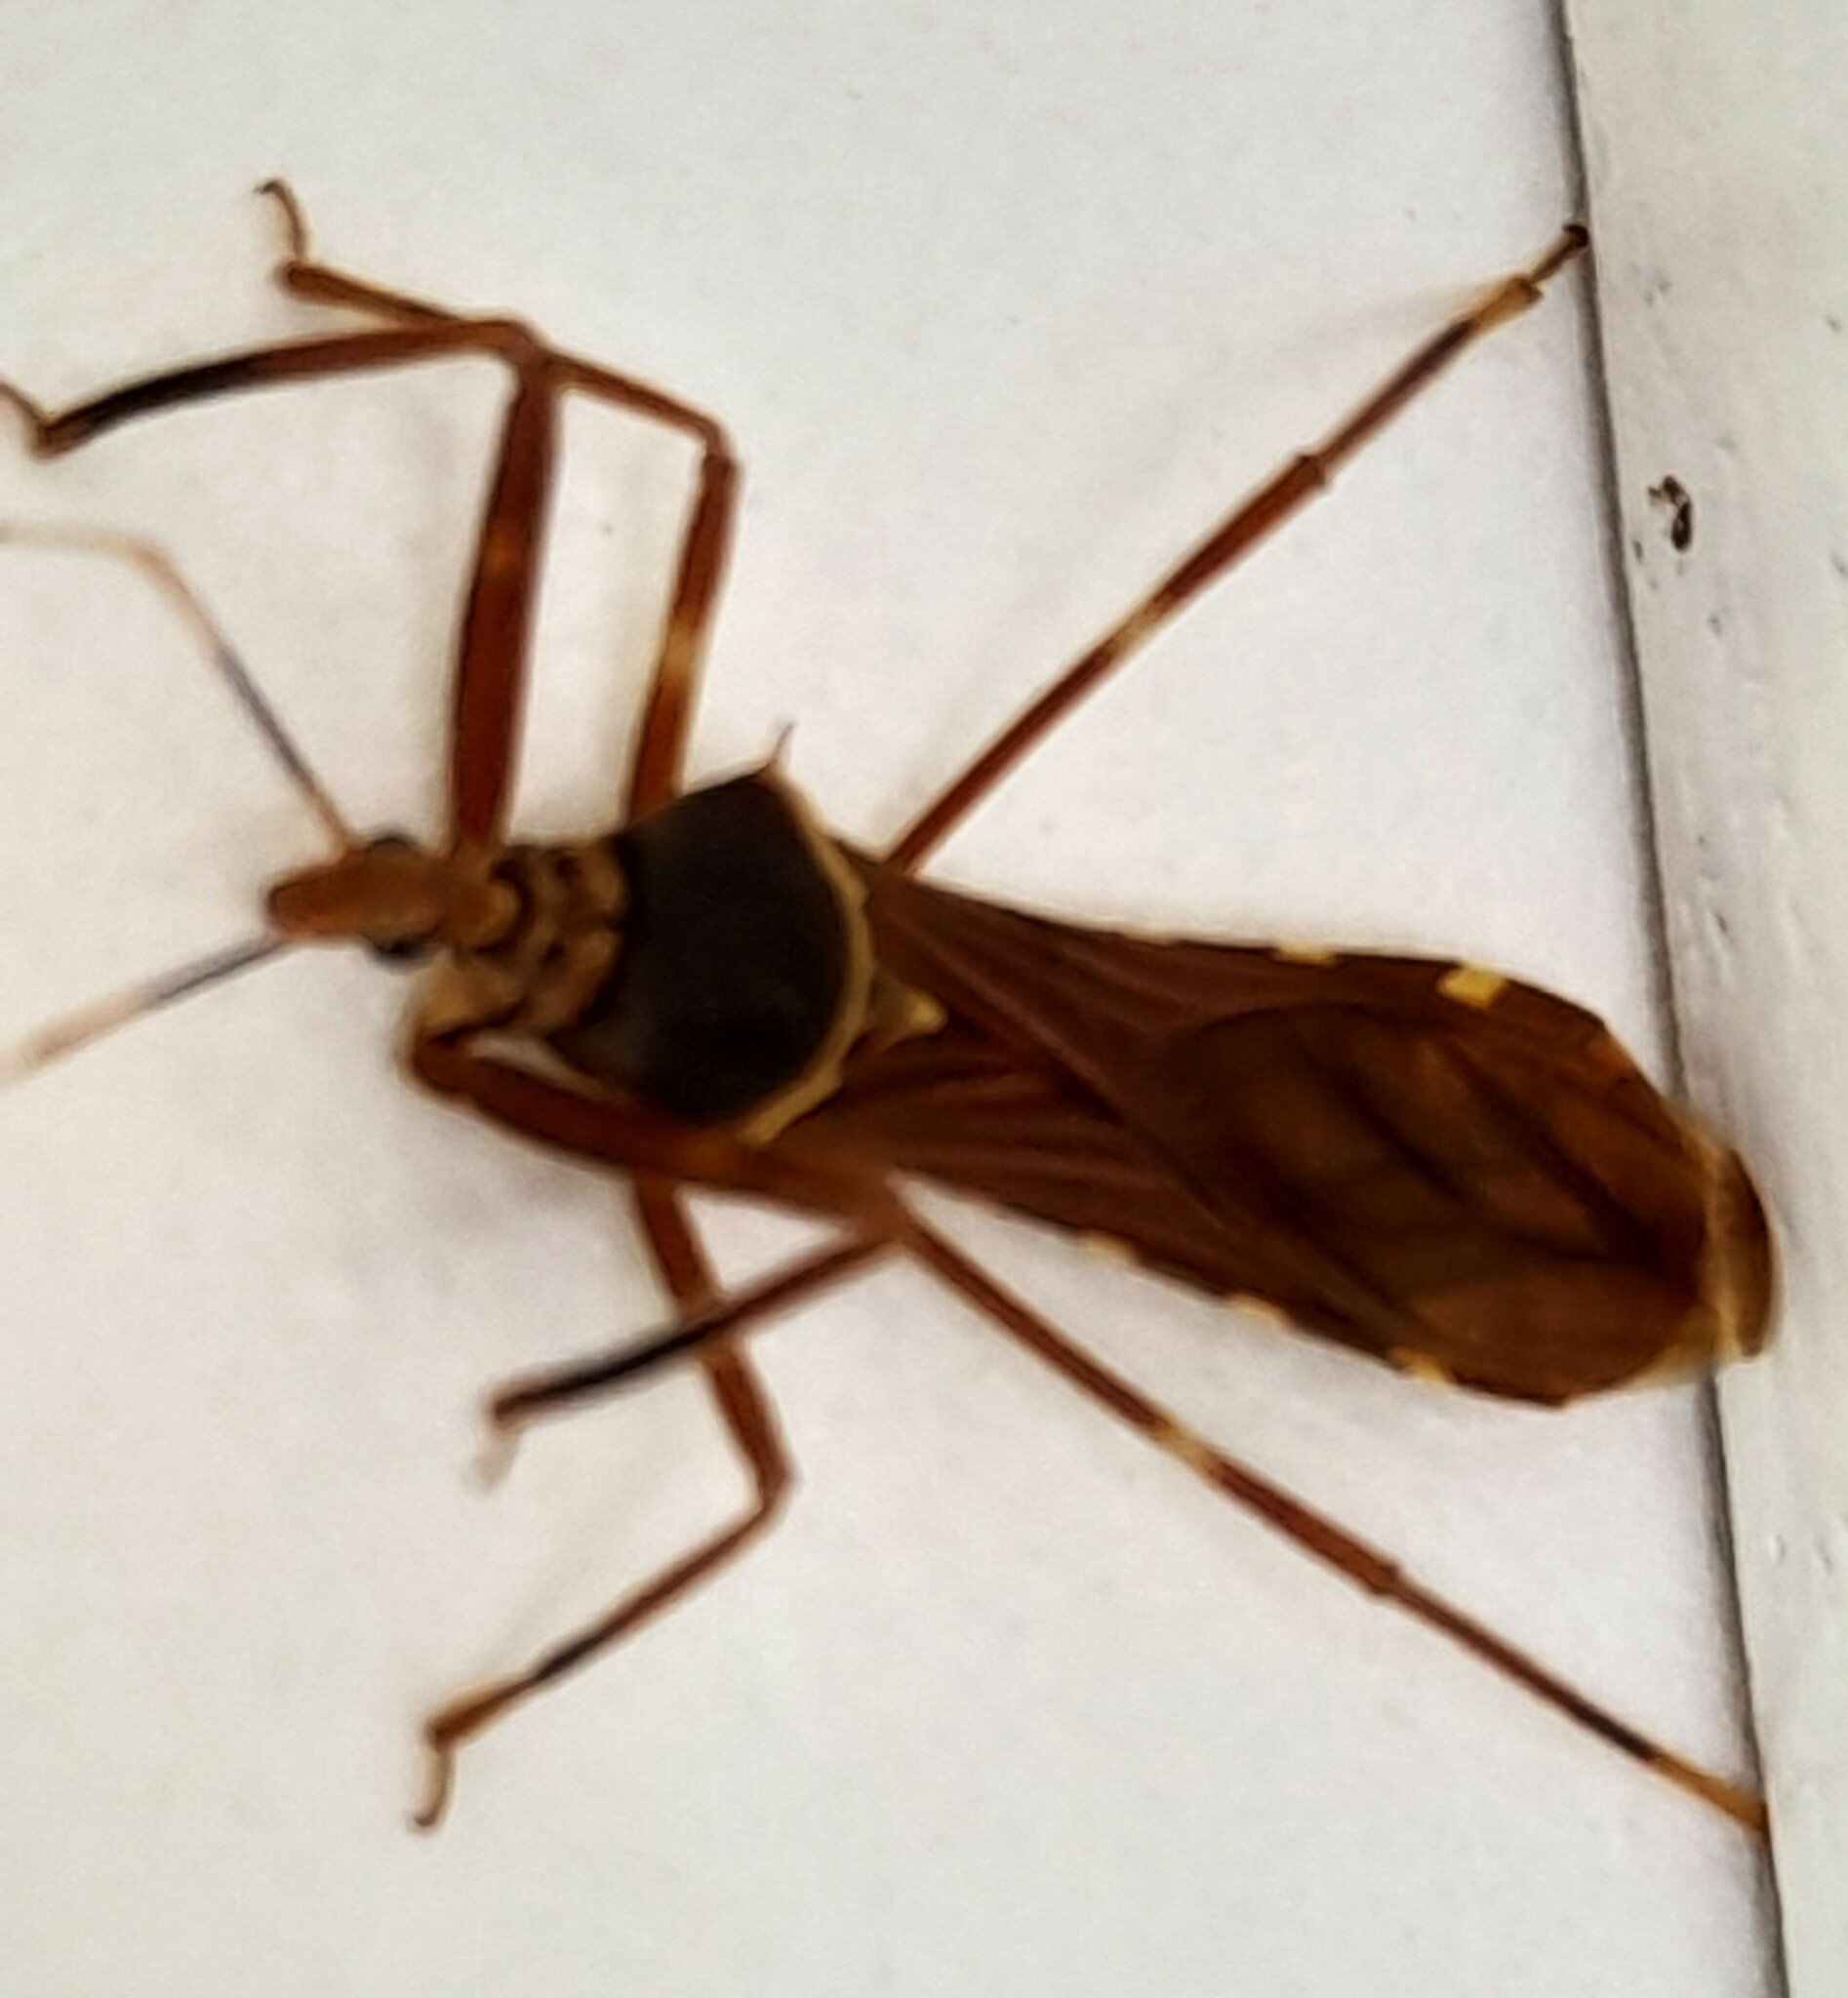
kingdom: Animalia
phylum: Arthropoda
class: Insecta
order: Hemiptera
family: Reduviidae
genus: Isocondylus
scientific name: Isocondylus elongatus
